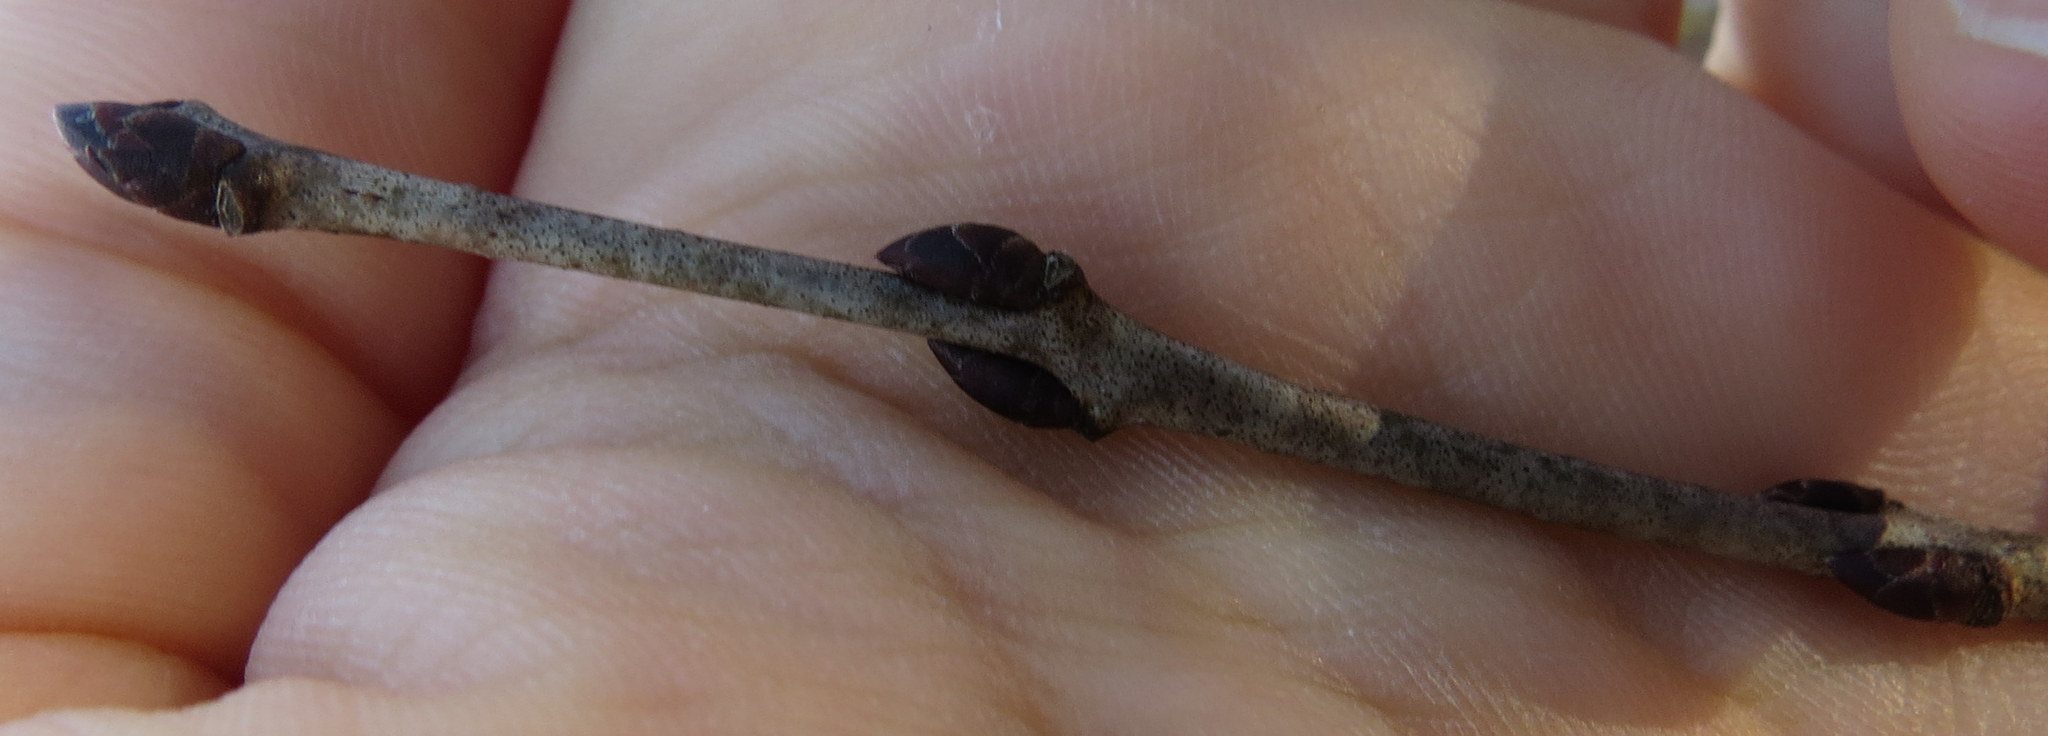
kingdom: Plantae
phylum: Tracheophyta
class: Magnoliopsida
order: Rosales
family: Rhamnaceae
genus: Rhamnus
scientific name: Rhamnus cathartica
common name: Common buckthorn
